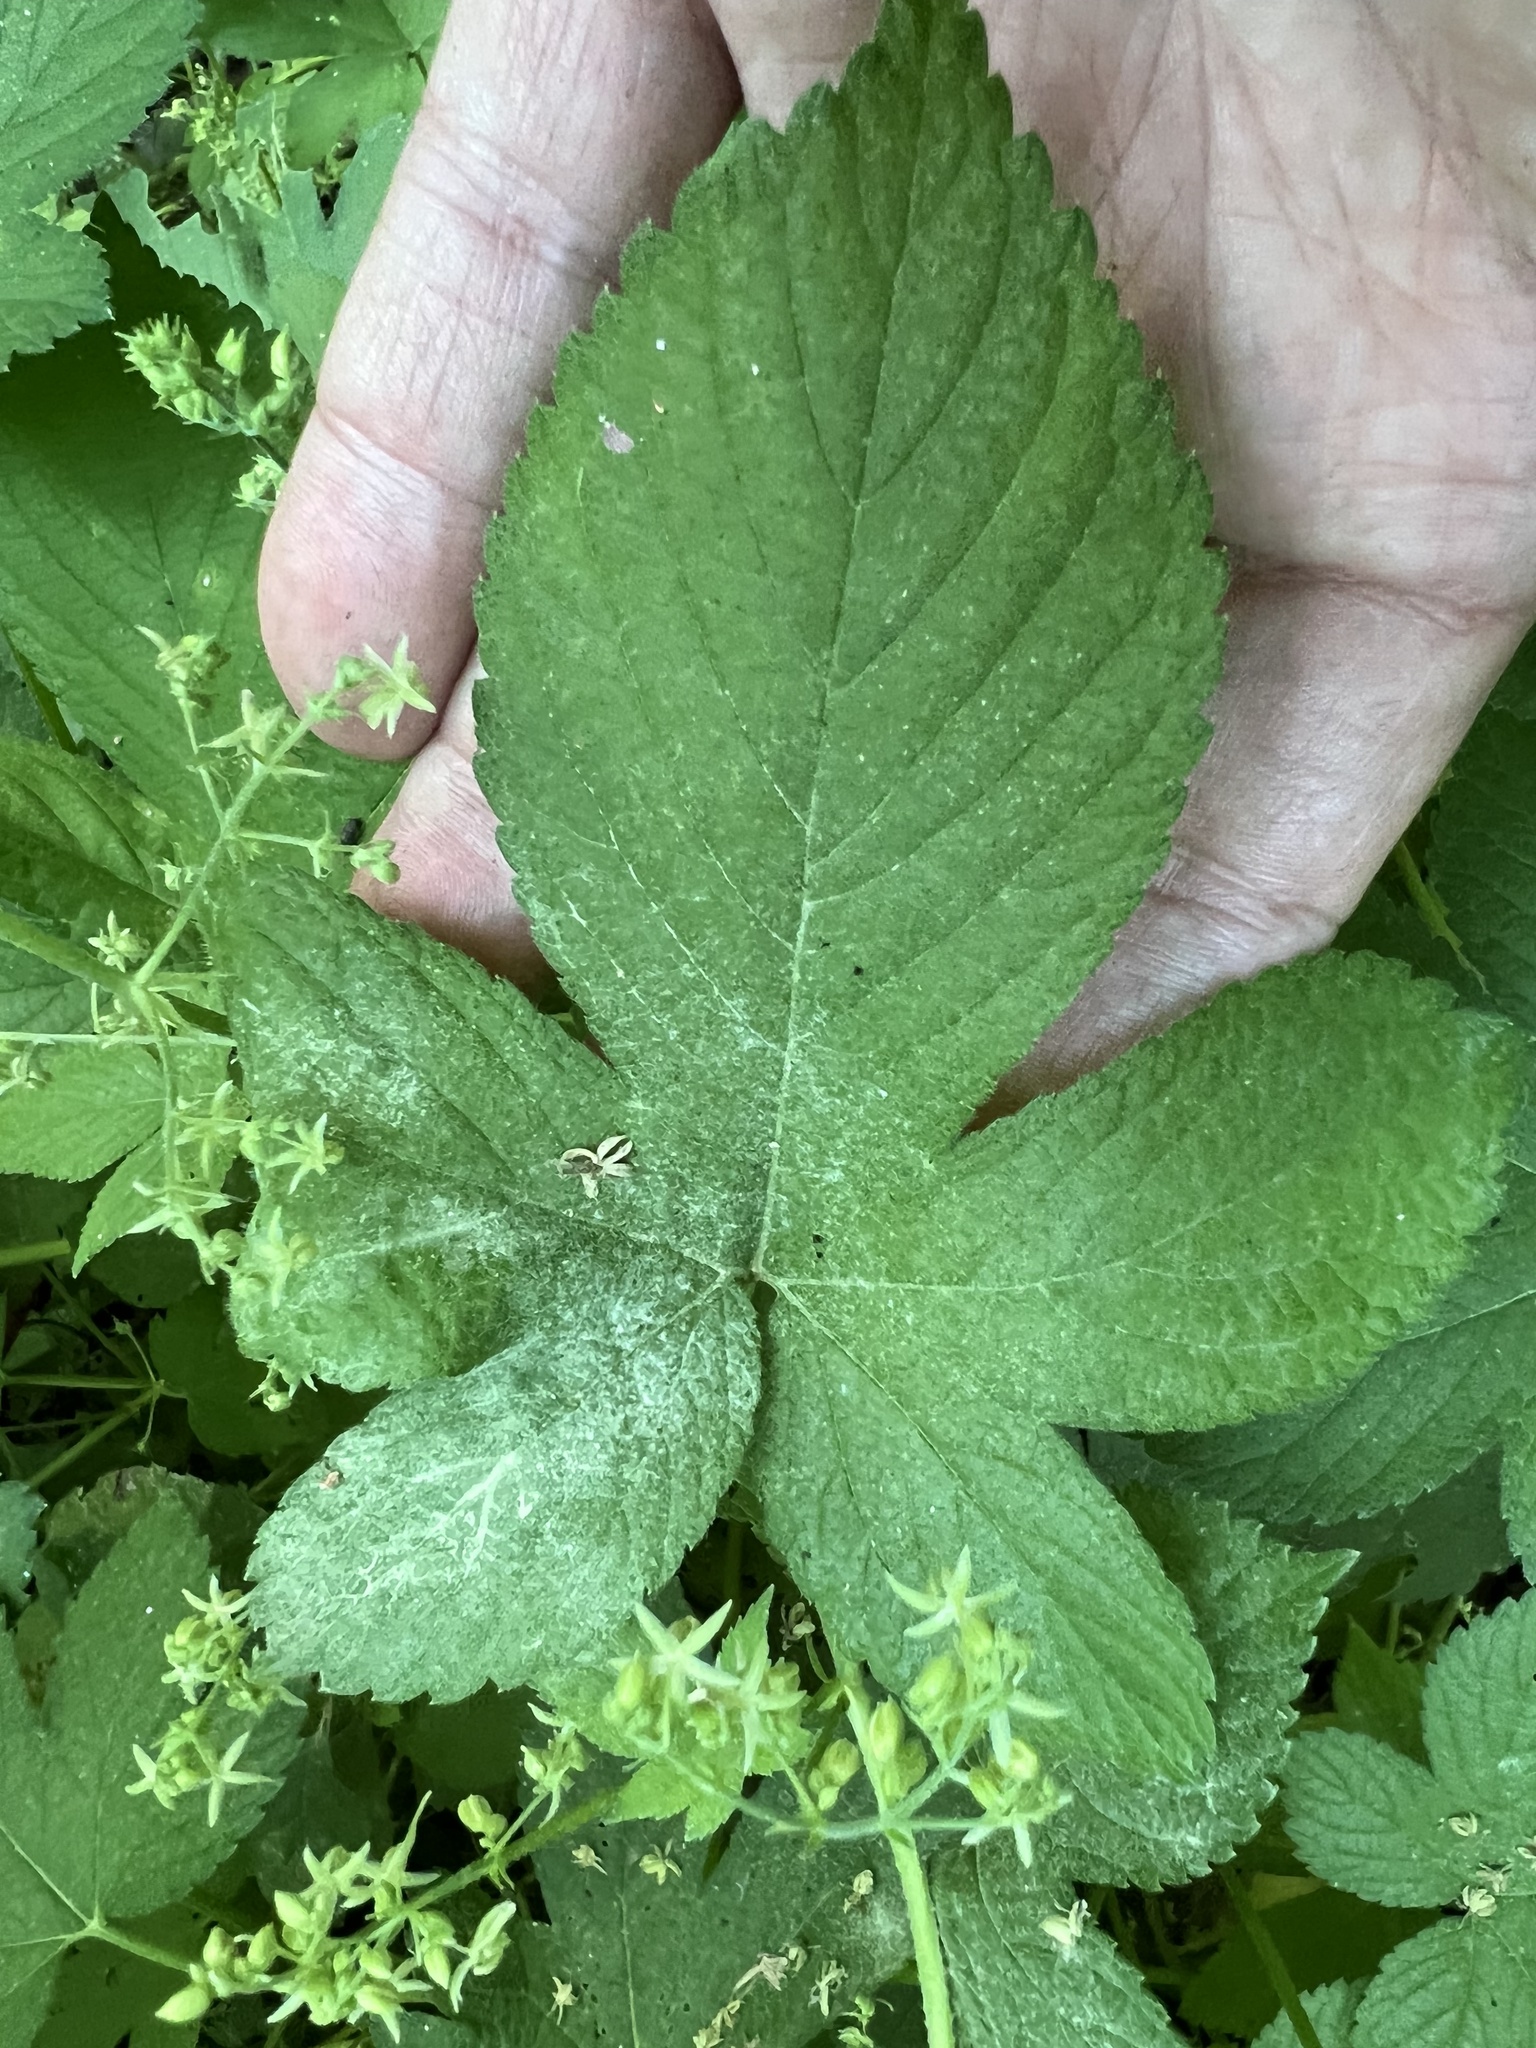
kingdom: Fungi
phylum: Ascomycota
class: Leotiomycetes
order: Helotiales
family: Erysiphaceae
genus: Podosphaera
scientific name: Podosphaera macularis
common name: Powdery mildew
